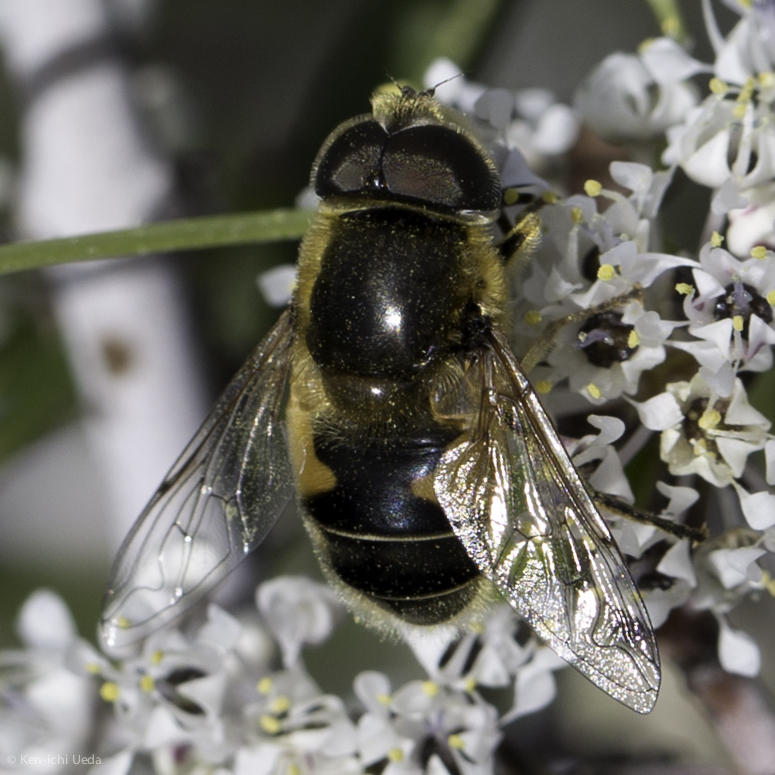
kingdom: Animalia
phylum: Arthropoda
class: Insecta
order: Diptera
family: Syrphidae
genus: Eristalis
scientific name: Eristalis nemorum
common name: Orange-spined drone fly
